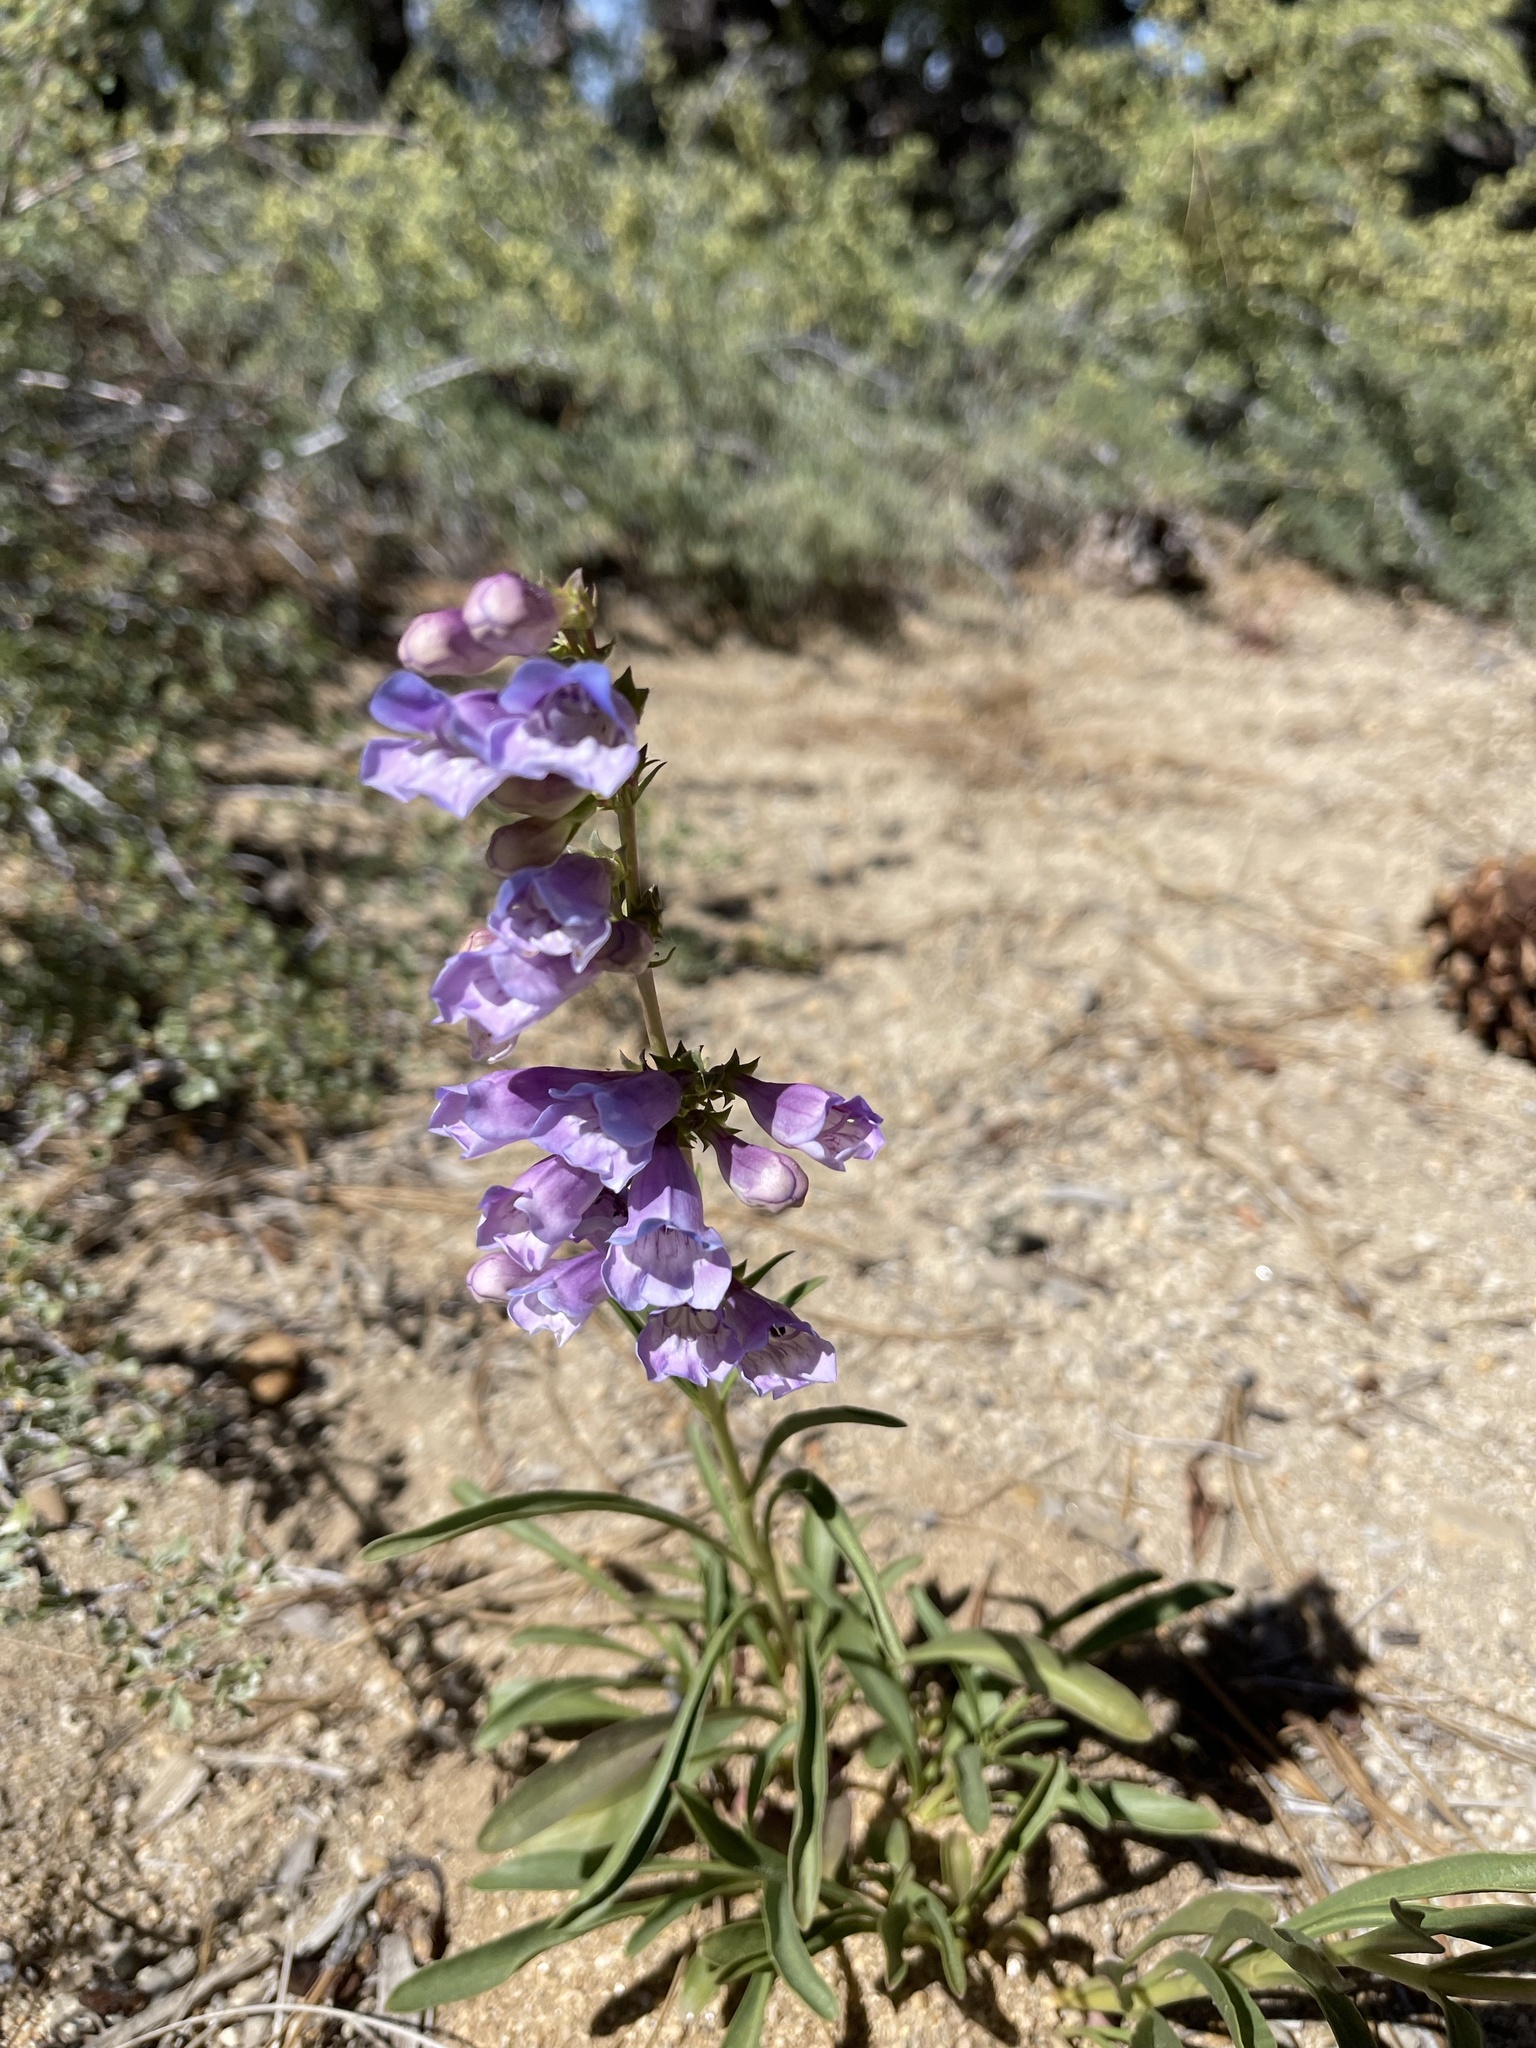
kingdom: Plantae
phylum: Tracheophyta
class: Magnoliopsida
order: Lamiales
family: Plantaginaceae
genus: Penstemon
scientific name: Penstemon speciosus
